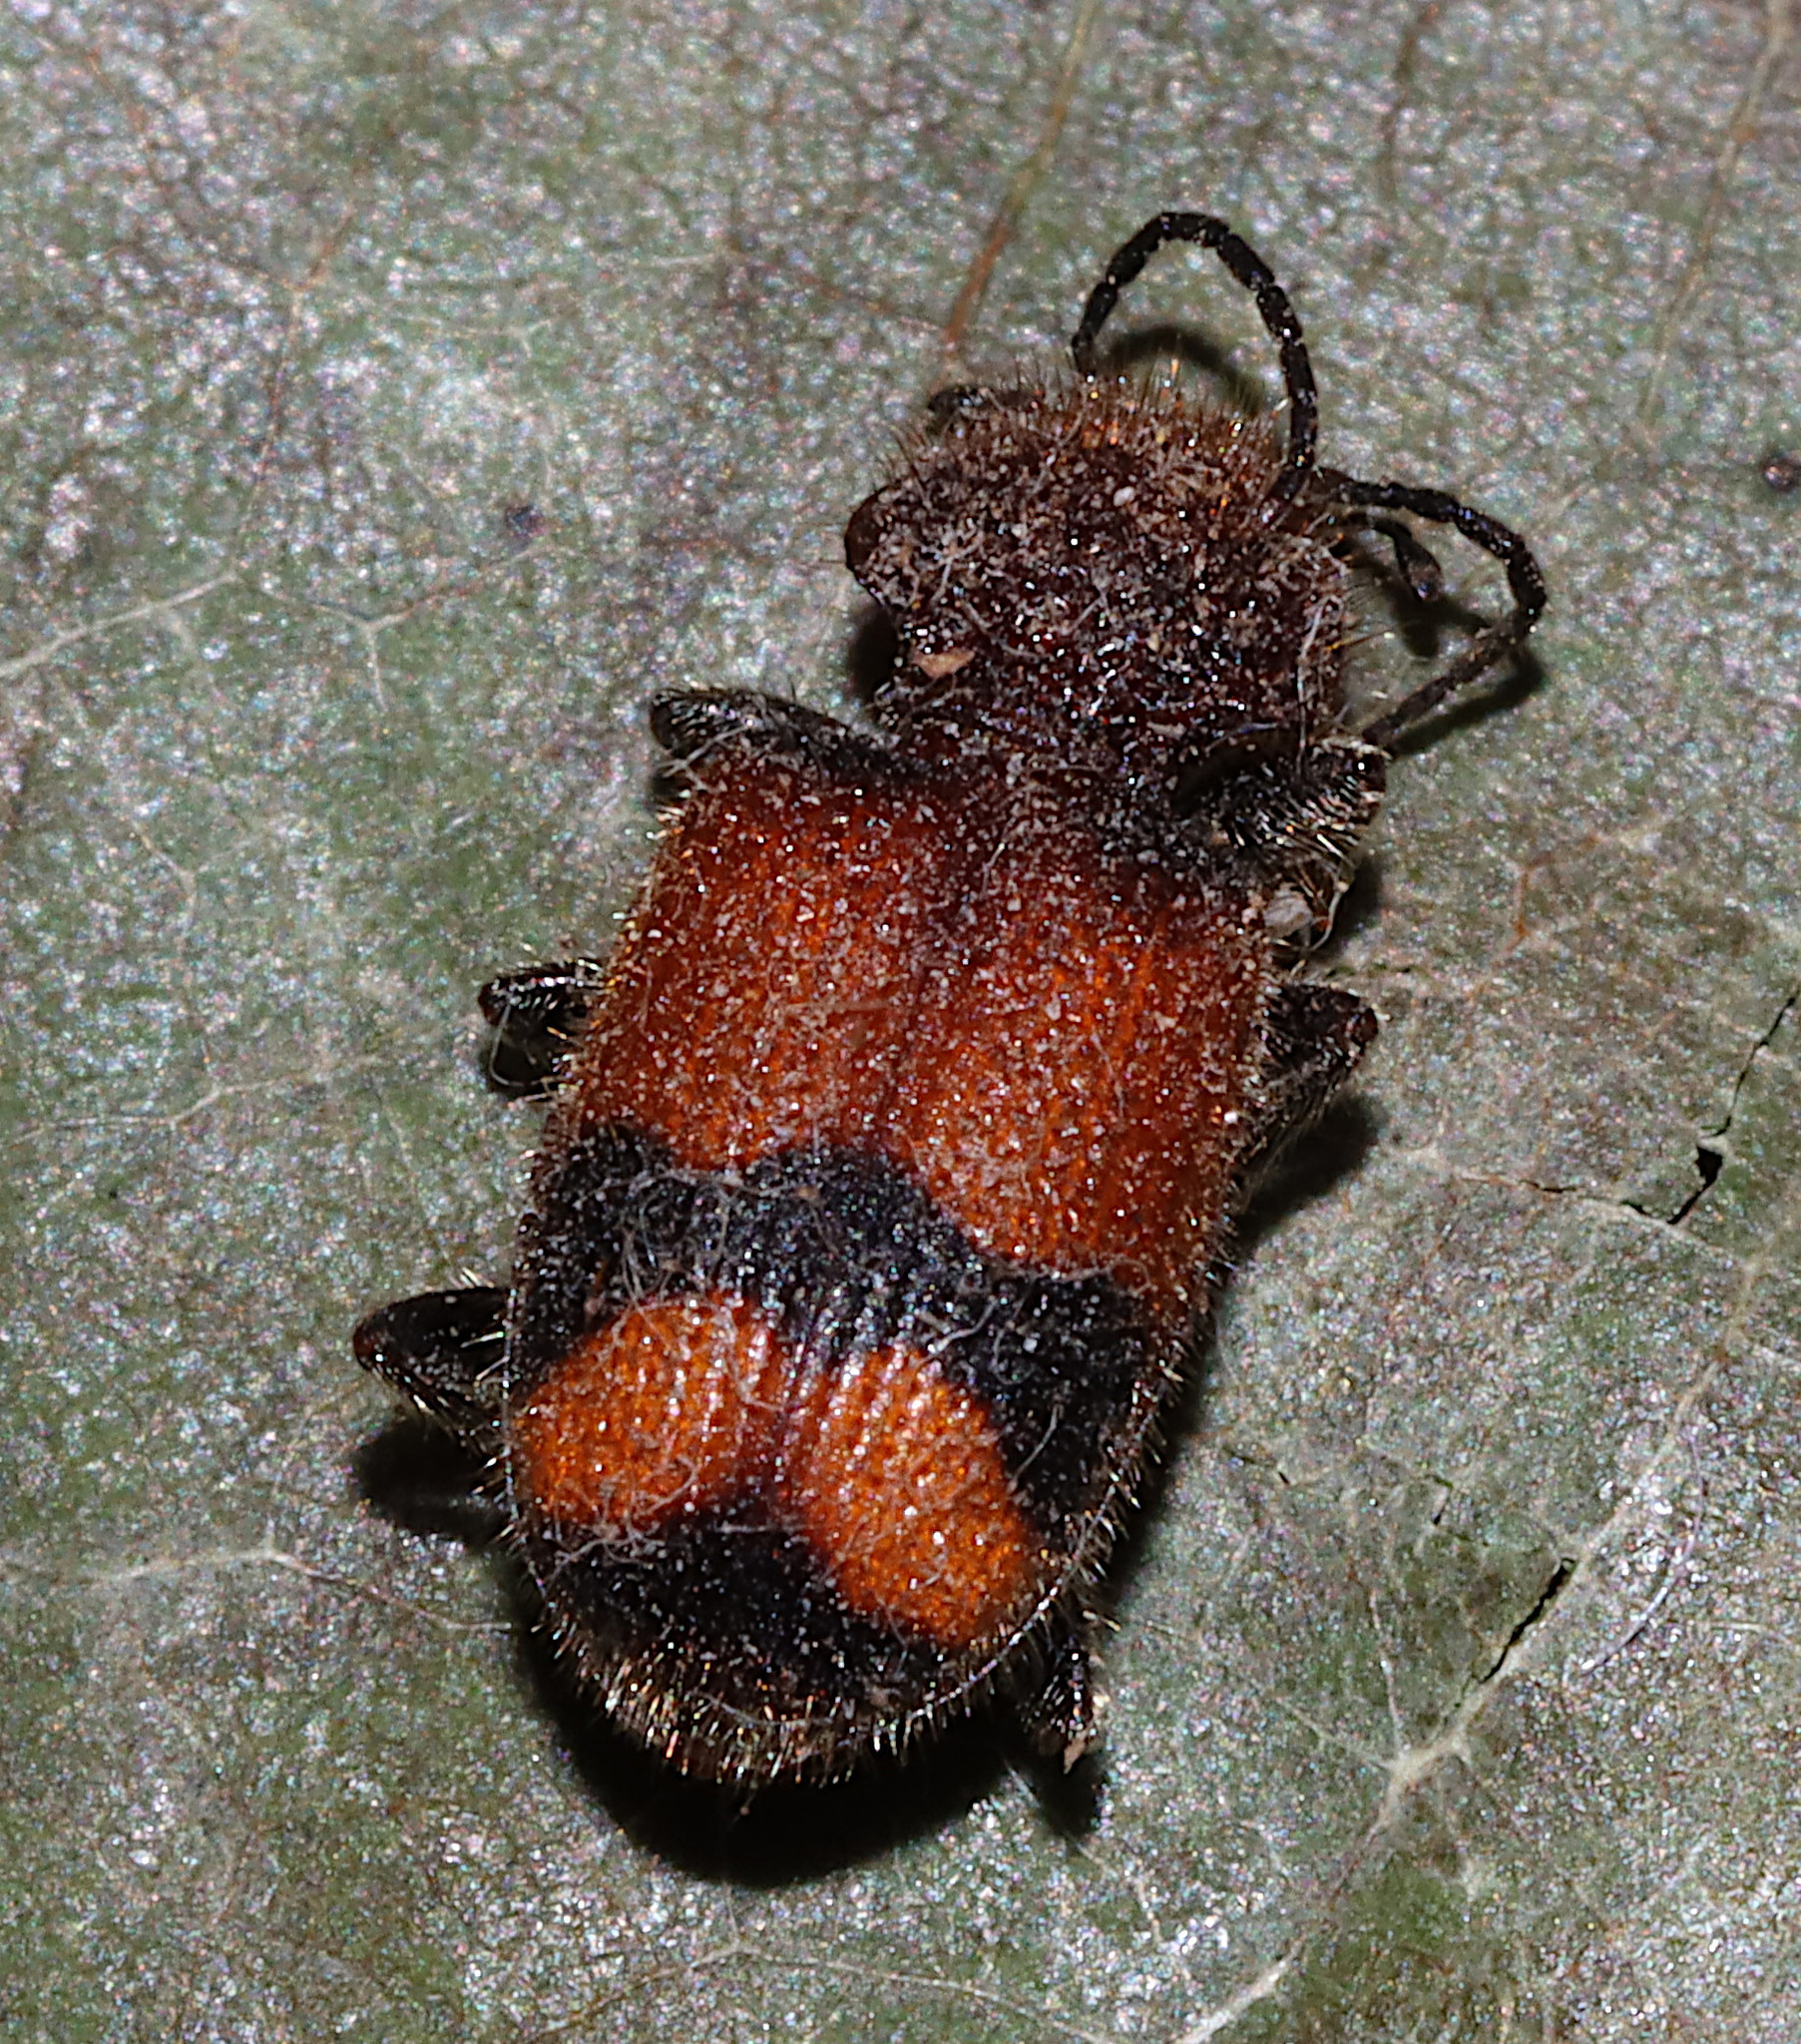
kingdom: Animalia
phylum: Arthropoda
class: Insecta
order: Coleoptera
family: Carabidae
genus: Panagaeus
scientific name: Panagaeus fasciatus
